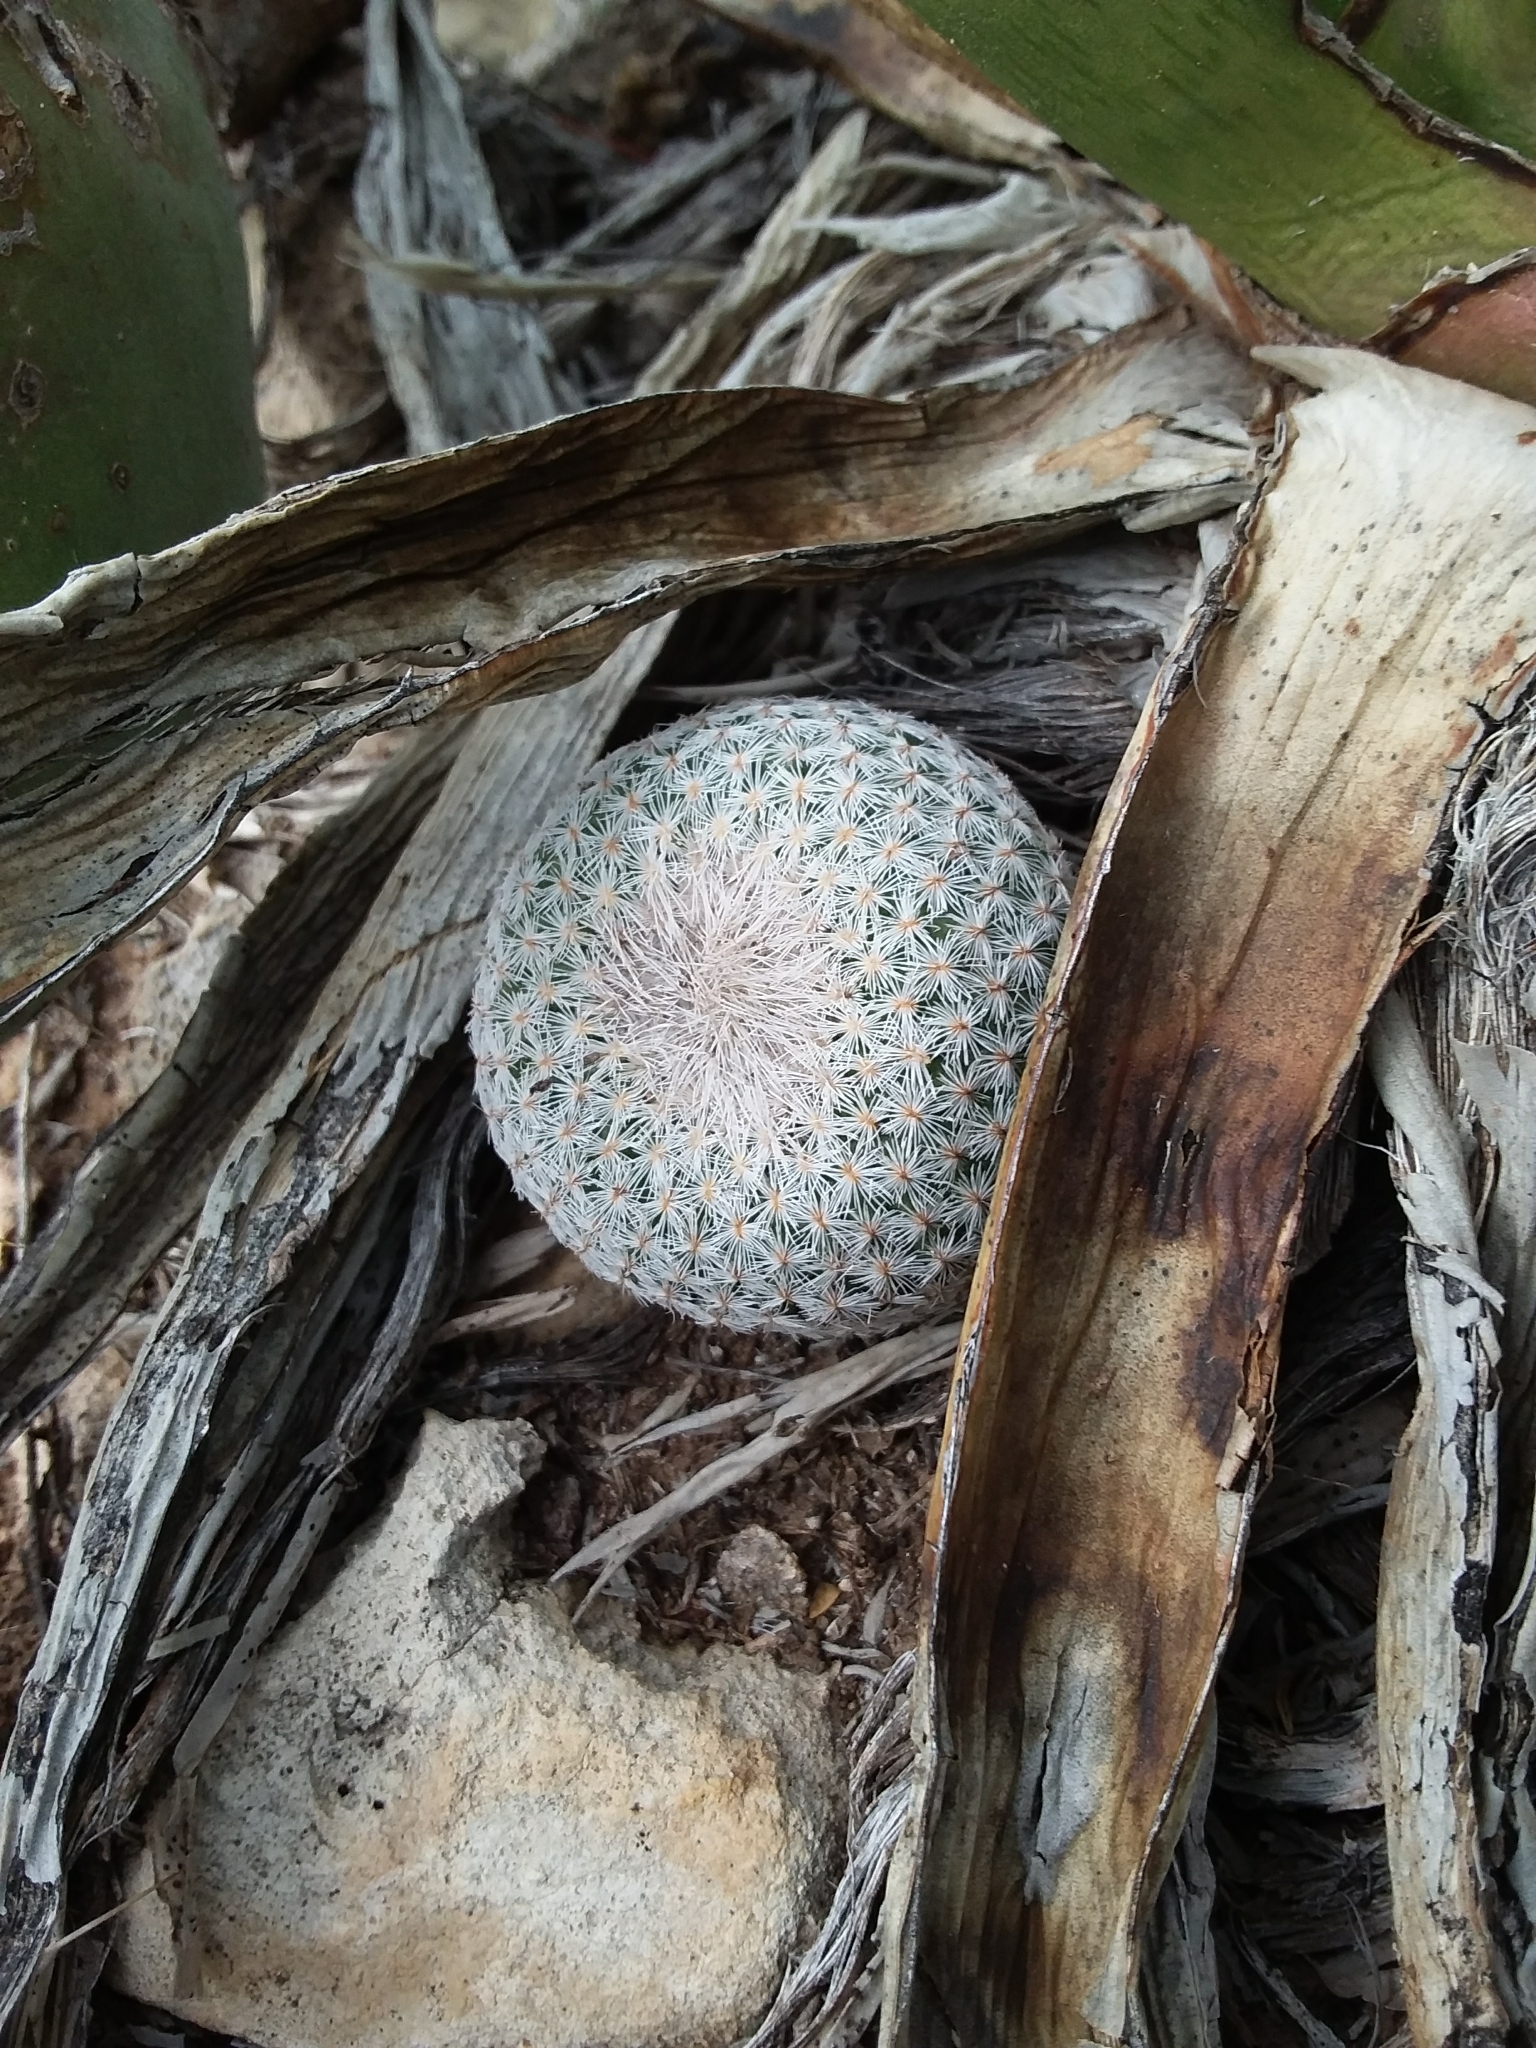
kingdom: Plantae
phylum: Tracheophyta
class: Magnoliopsida
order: Caryophyllales
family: Cactaceae
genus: Epithelantha
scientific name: Epithelantha micromeris
